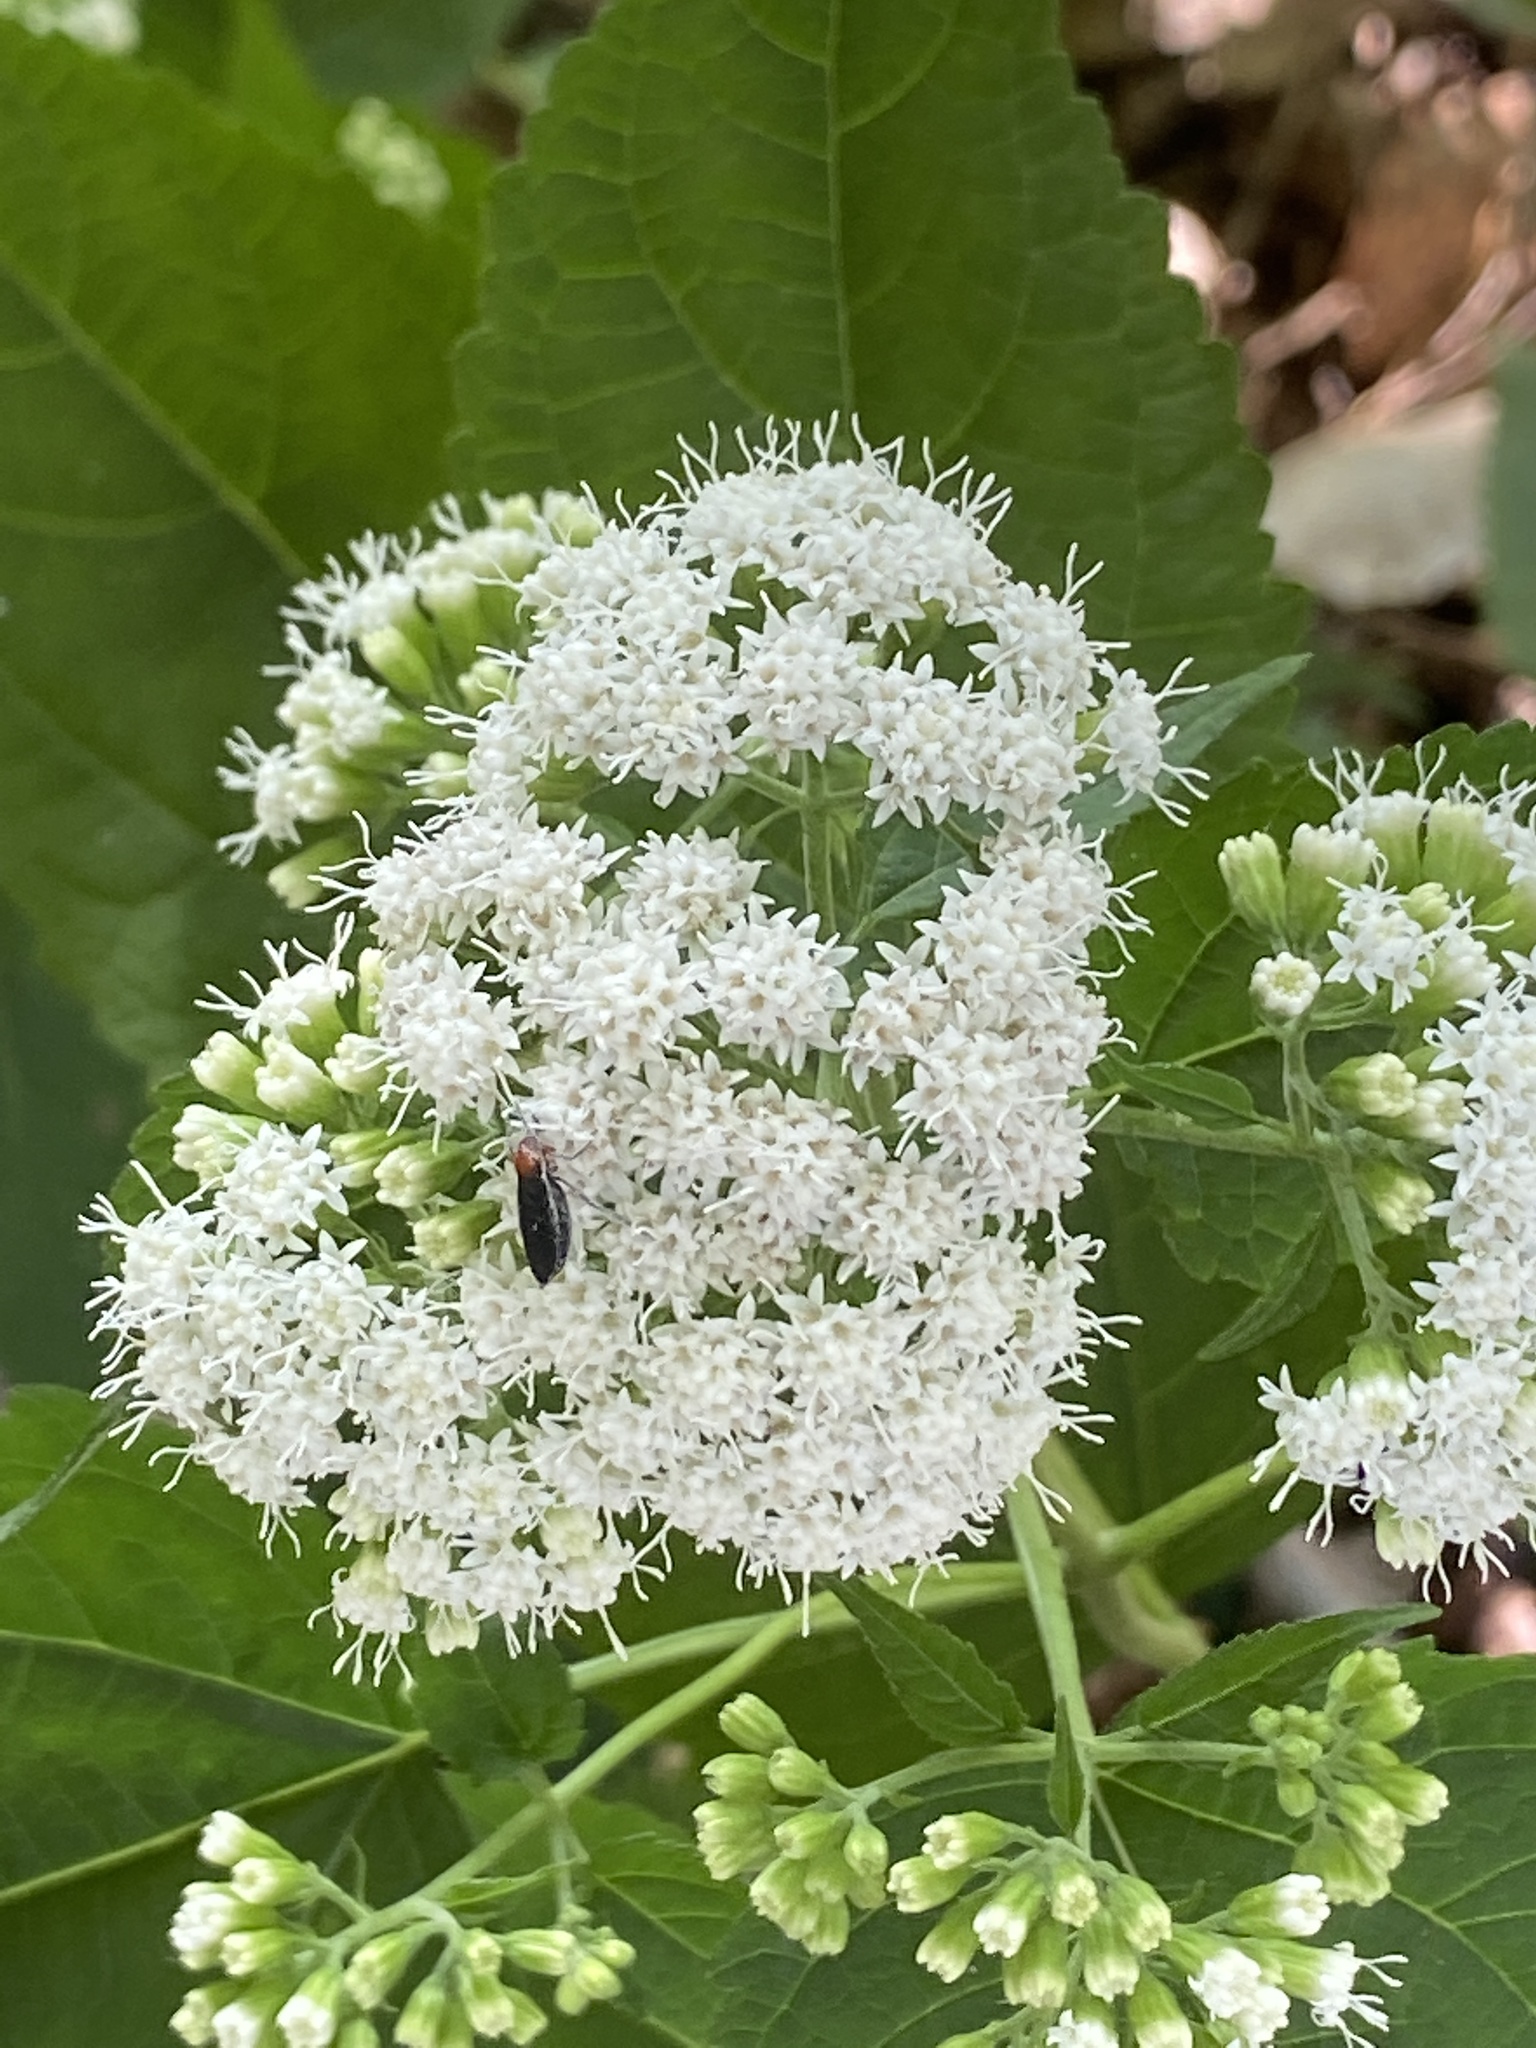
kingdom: Plantae
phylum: Tracheophyta
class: Magnoliopsida
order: Asterales
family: Asteraceae
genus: Ageratina
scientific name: Ageratina altissima
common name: White snakeroot
